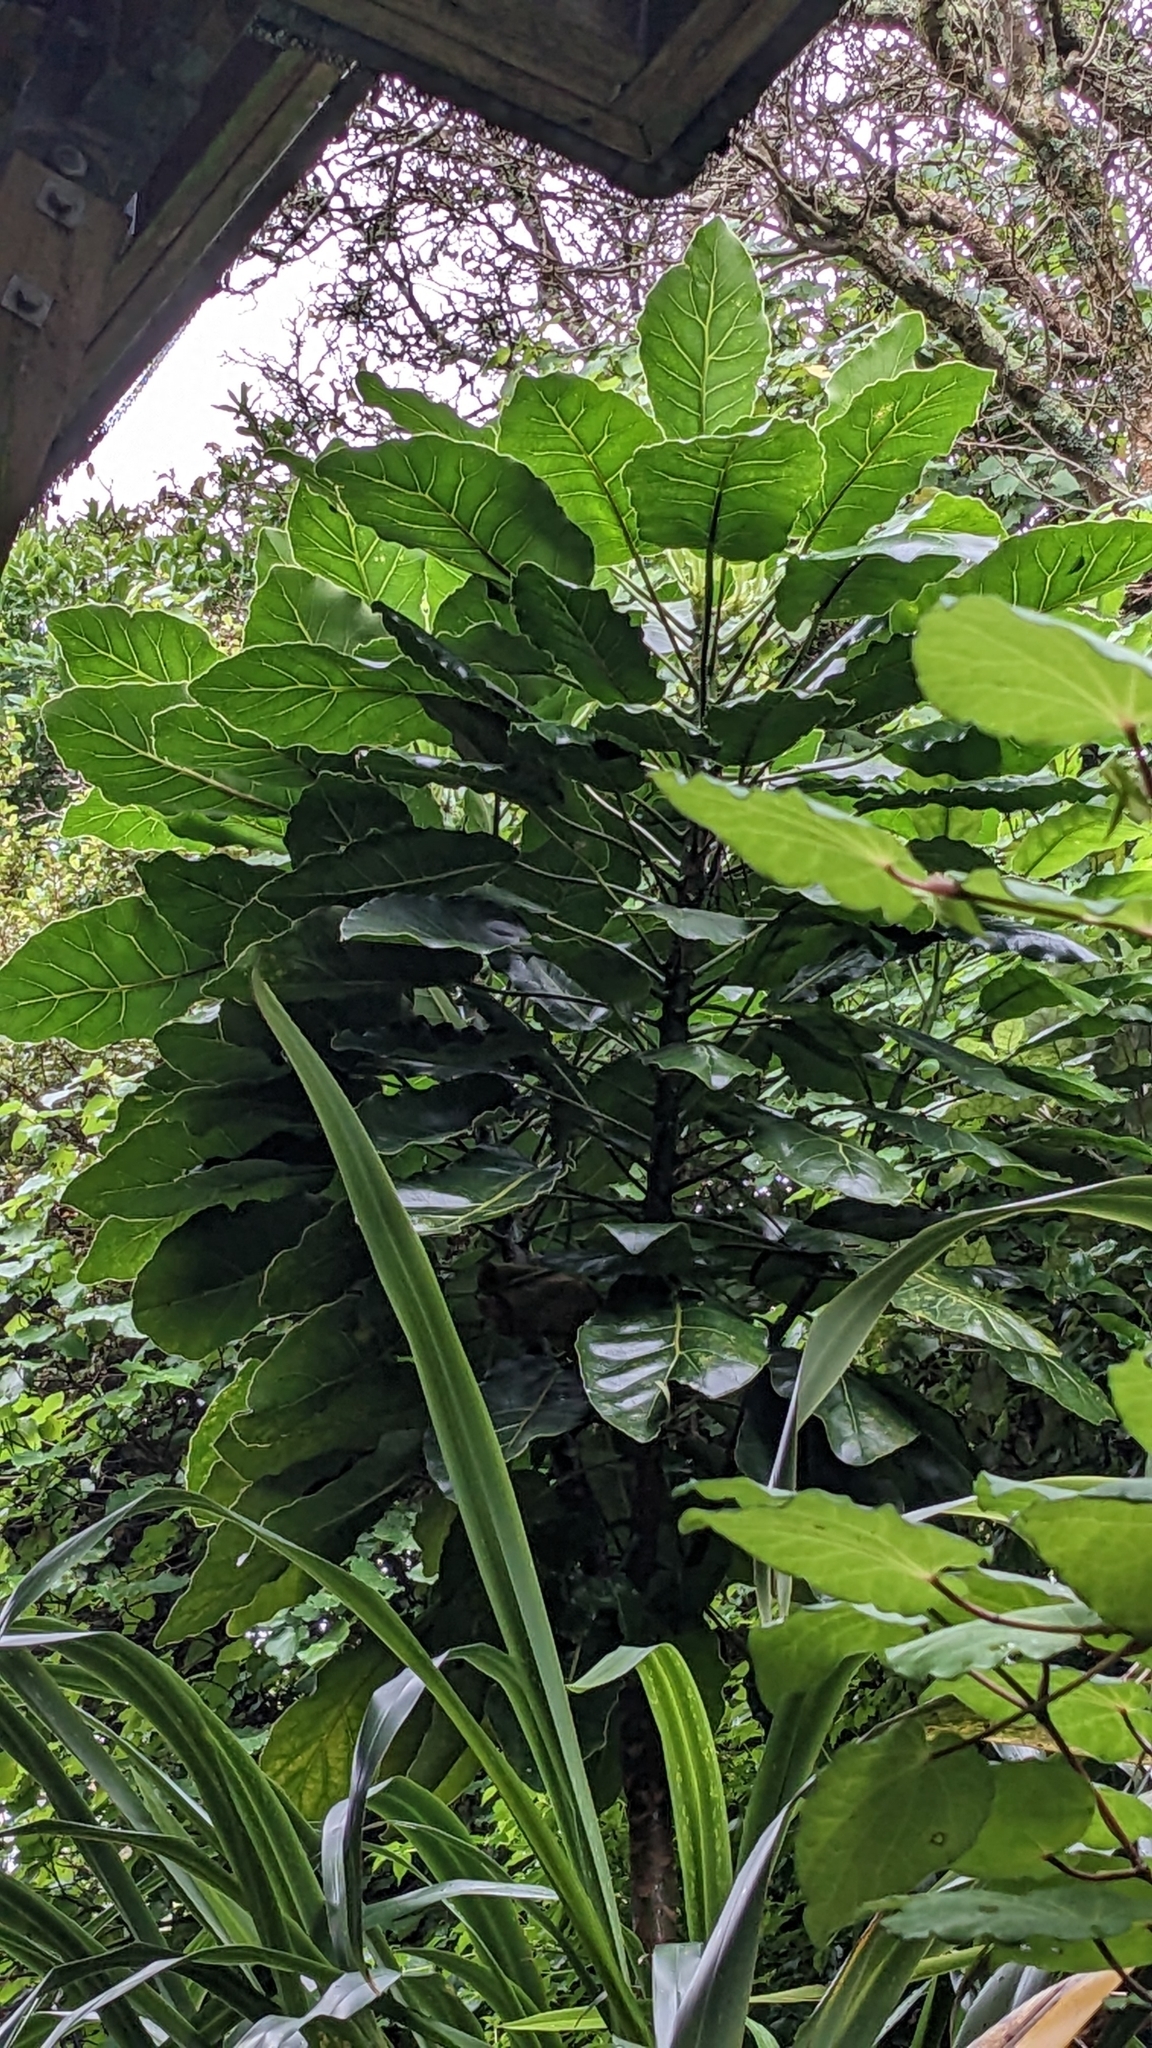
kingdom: Plantae
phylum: Tracheophyta
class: Magnoliopsida
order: Apiales
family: Araliaceae
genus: Meryta
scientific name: Meryta sinclairii
